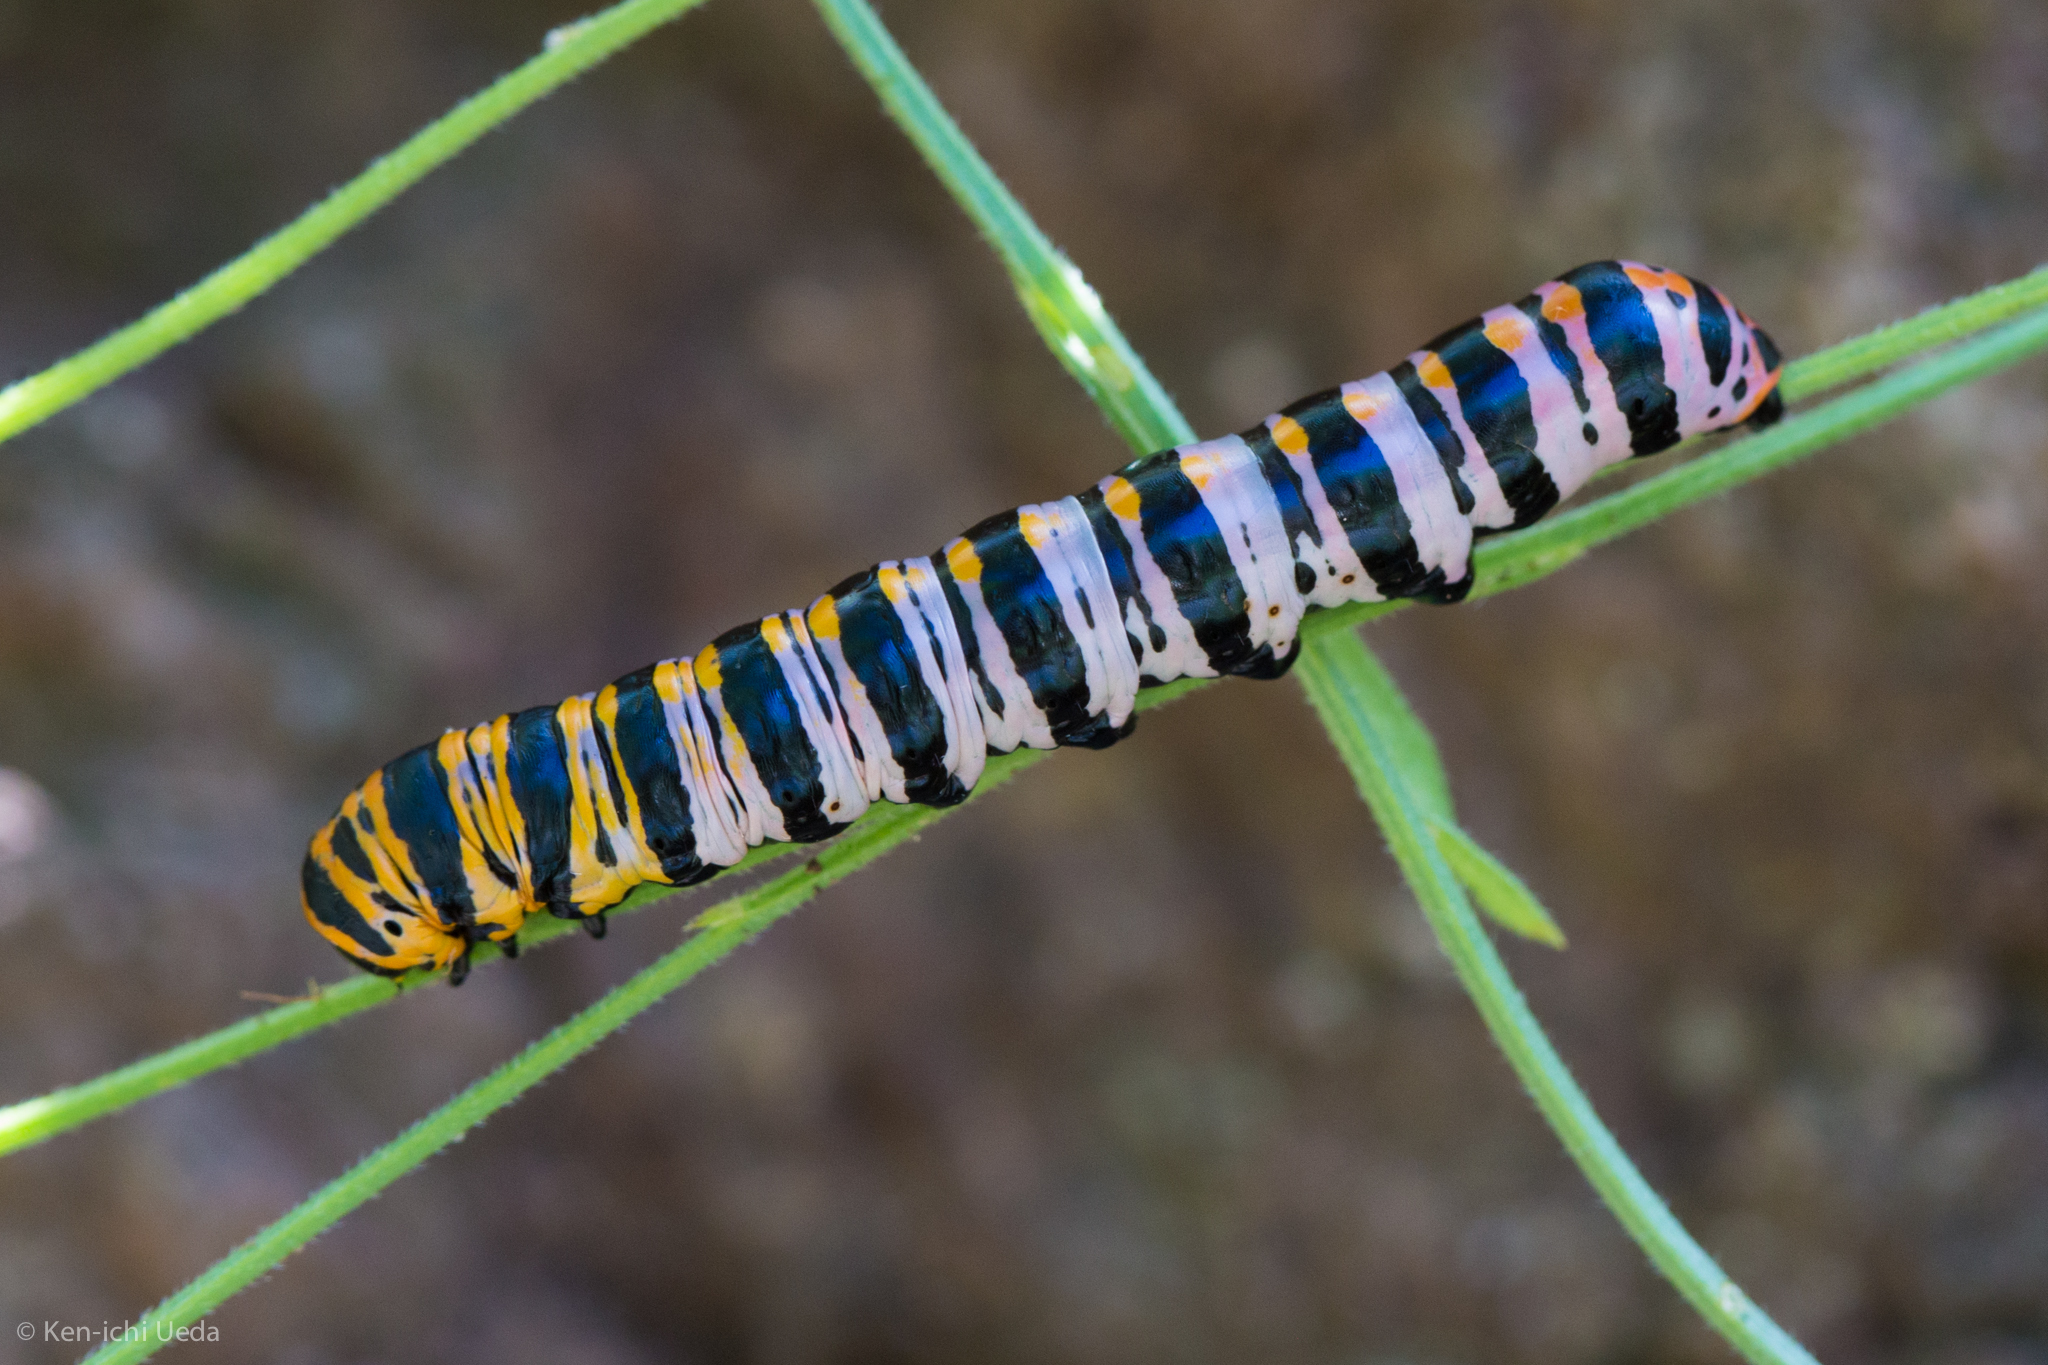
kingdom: Animalia
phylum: Arthropoda
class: Insecta
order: Lepidoptera
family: Noctuidae
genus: Cucullia
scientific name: Cucullia lilacina
